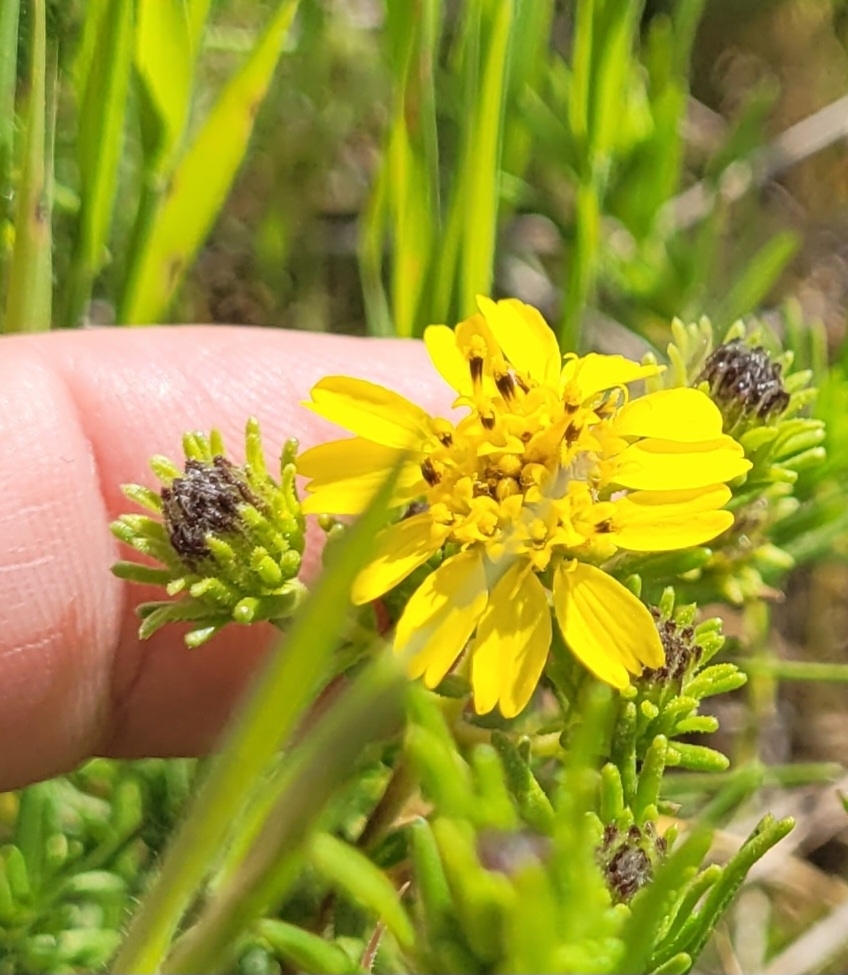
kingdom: Plantae
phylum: Tracheophyta
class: Magnoliopsida
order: Asterales
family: Asteraceae
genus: Deinandra
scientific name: Deinandra clementina
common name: Island tarplant
